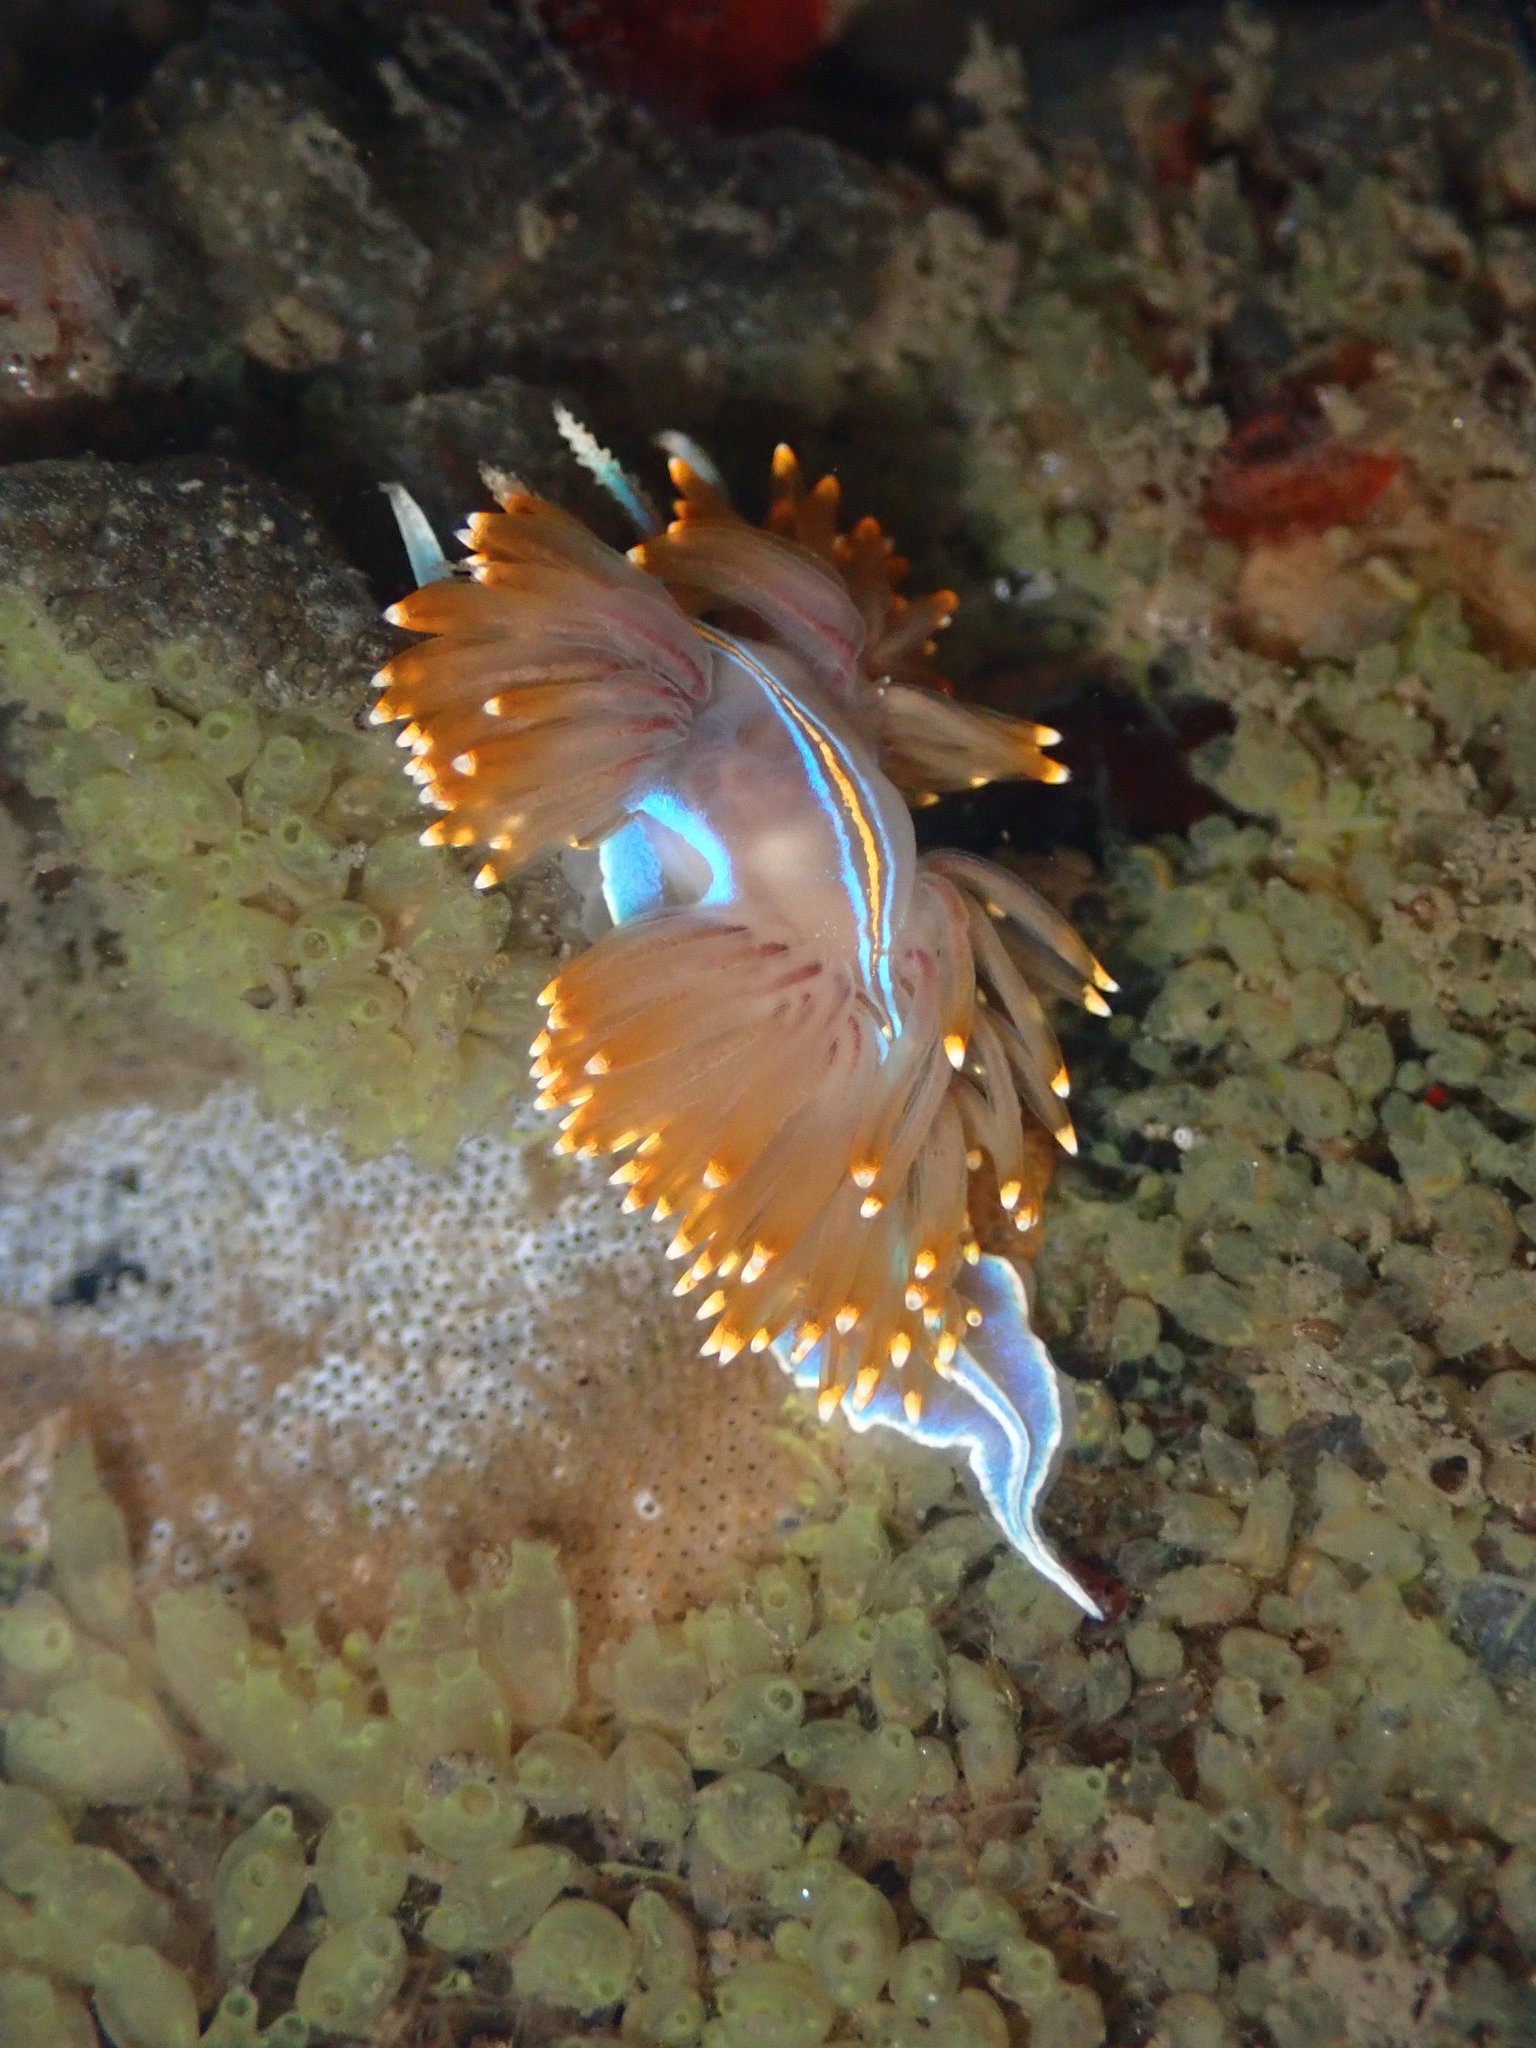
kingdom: Animalia
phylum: Mollusca
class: Gastropoda
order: Nudibranchia
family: Myrrhinidae
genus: Hermissenda
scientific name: Hermissenda opalescens
